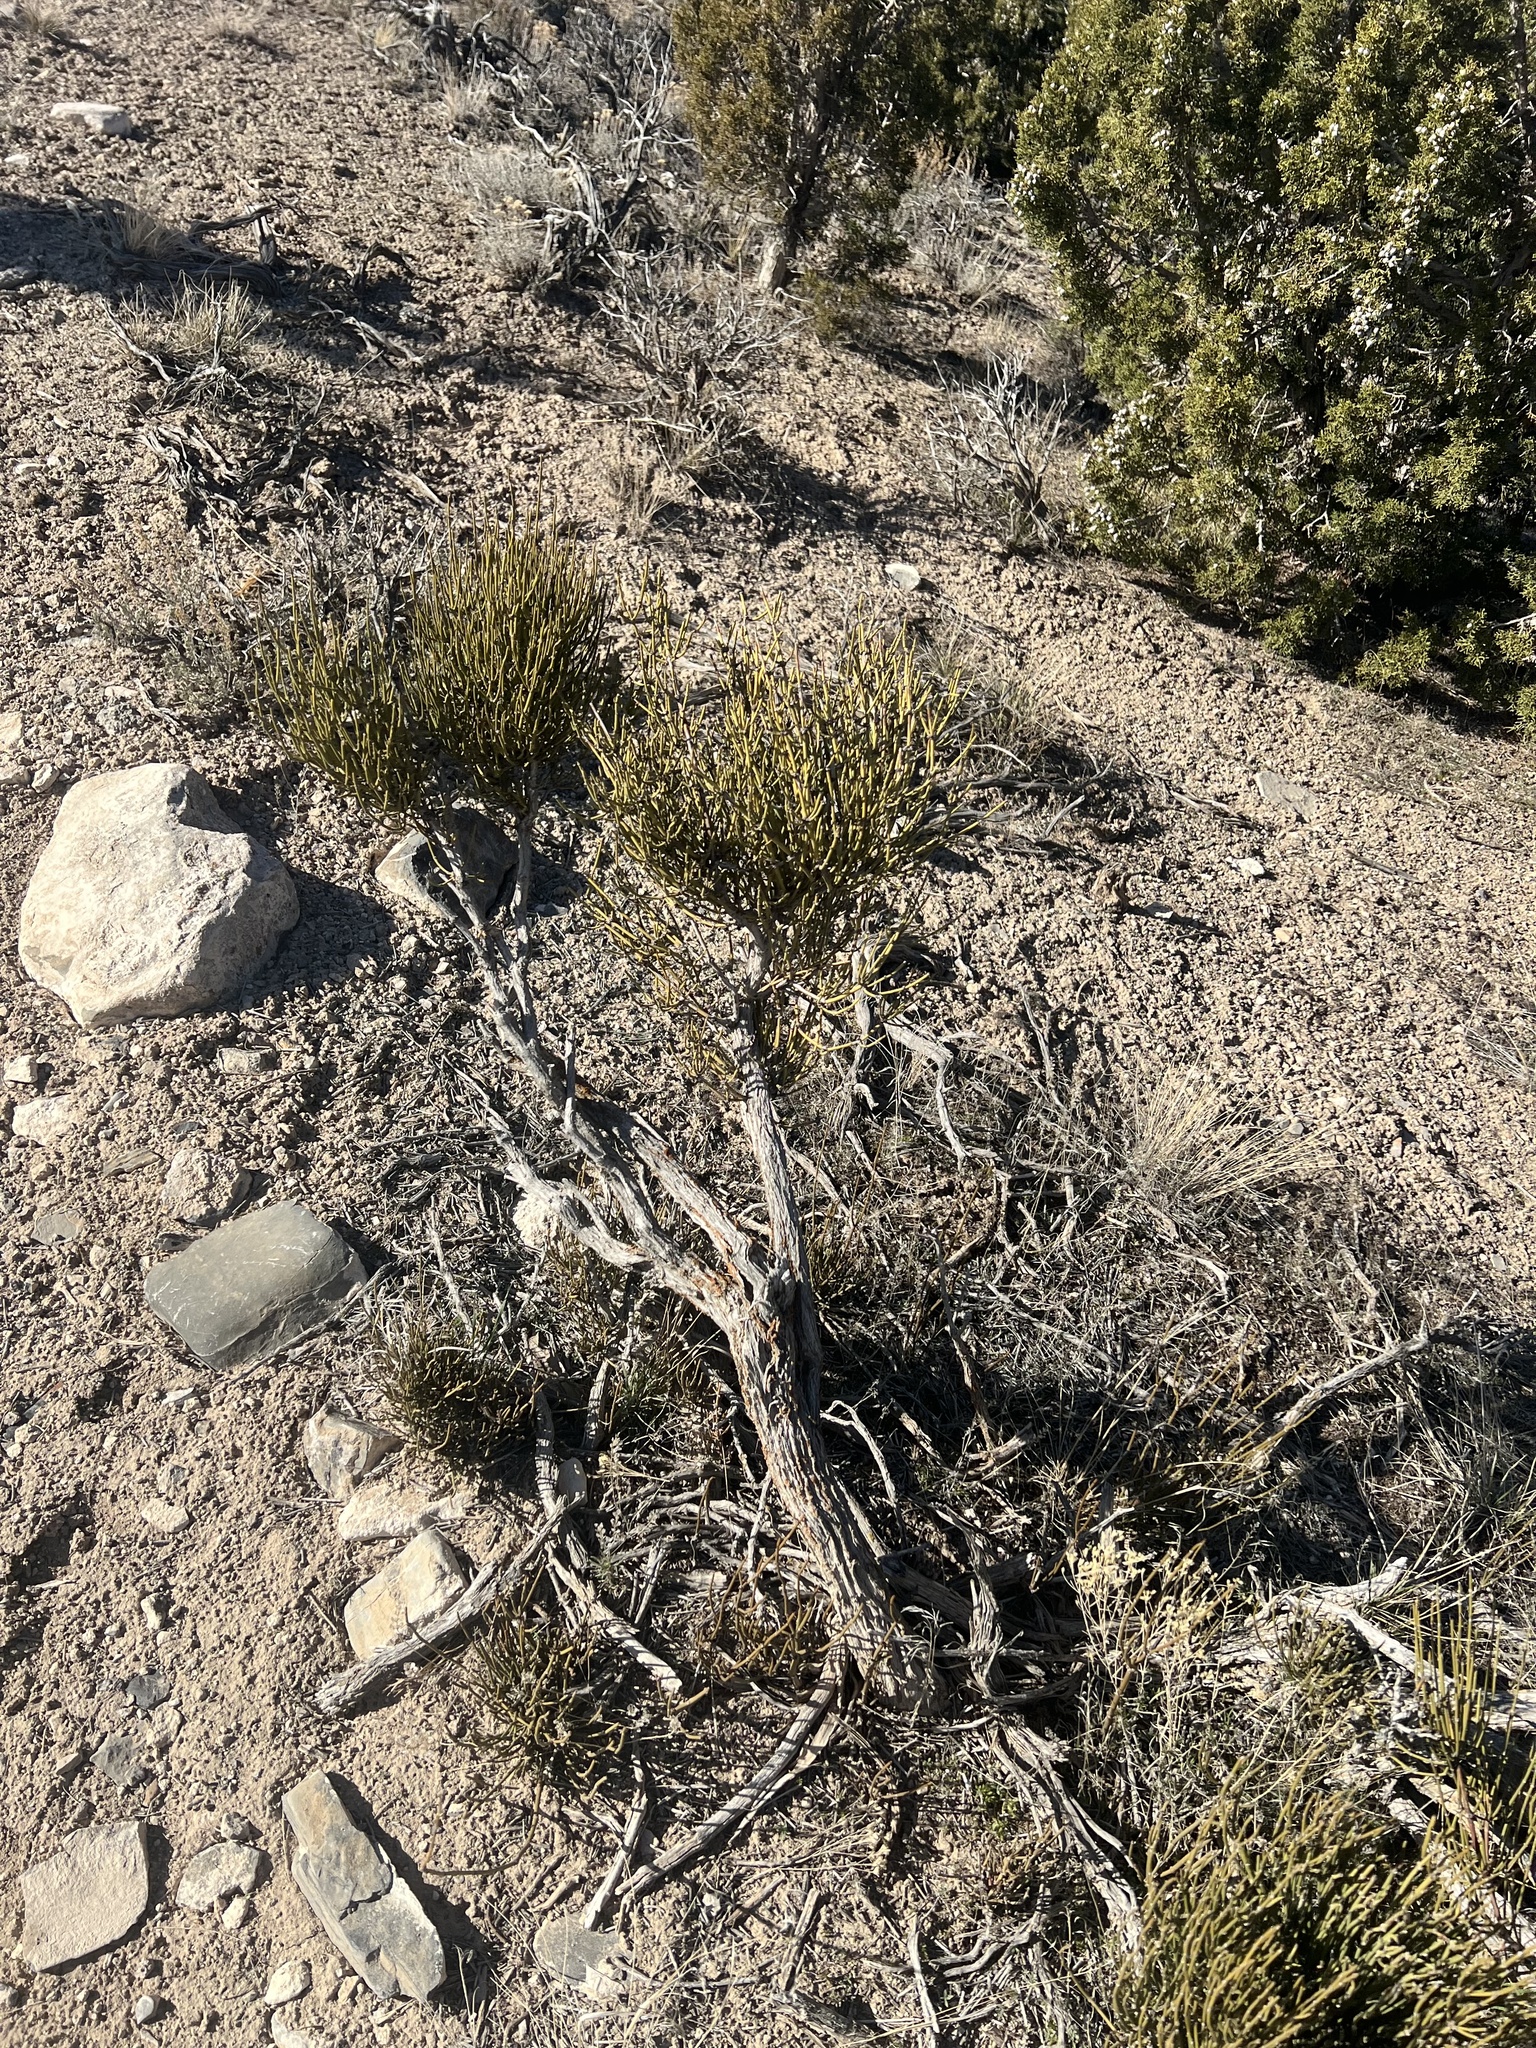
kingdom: Plantae
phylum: Tracheophyta
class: Gnetopsida
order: Ephedrales
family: Ephedraceae
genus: Ephedra
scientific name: Ephedra viridis
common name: Green ephedra
